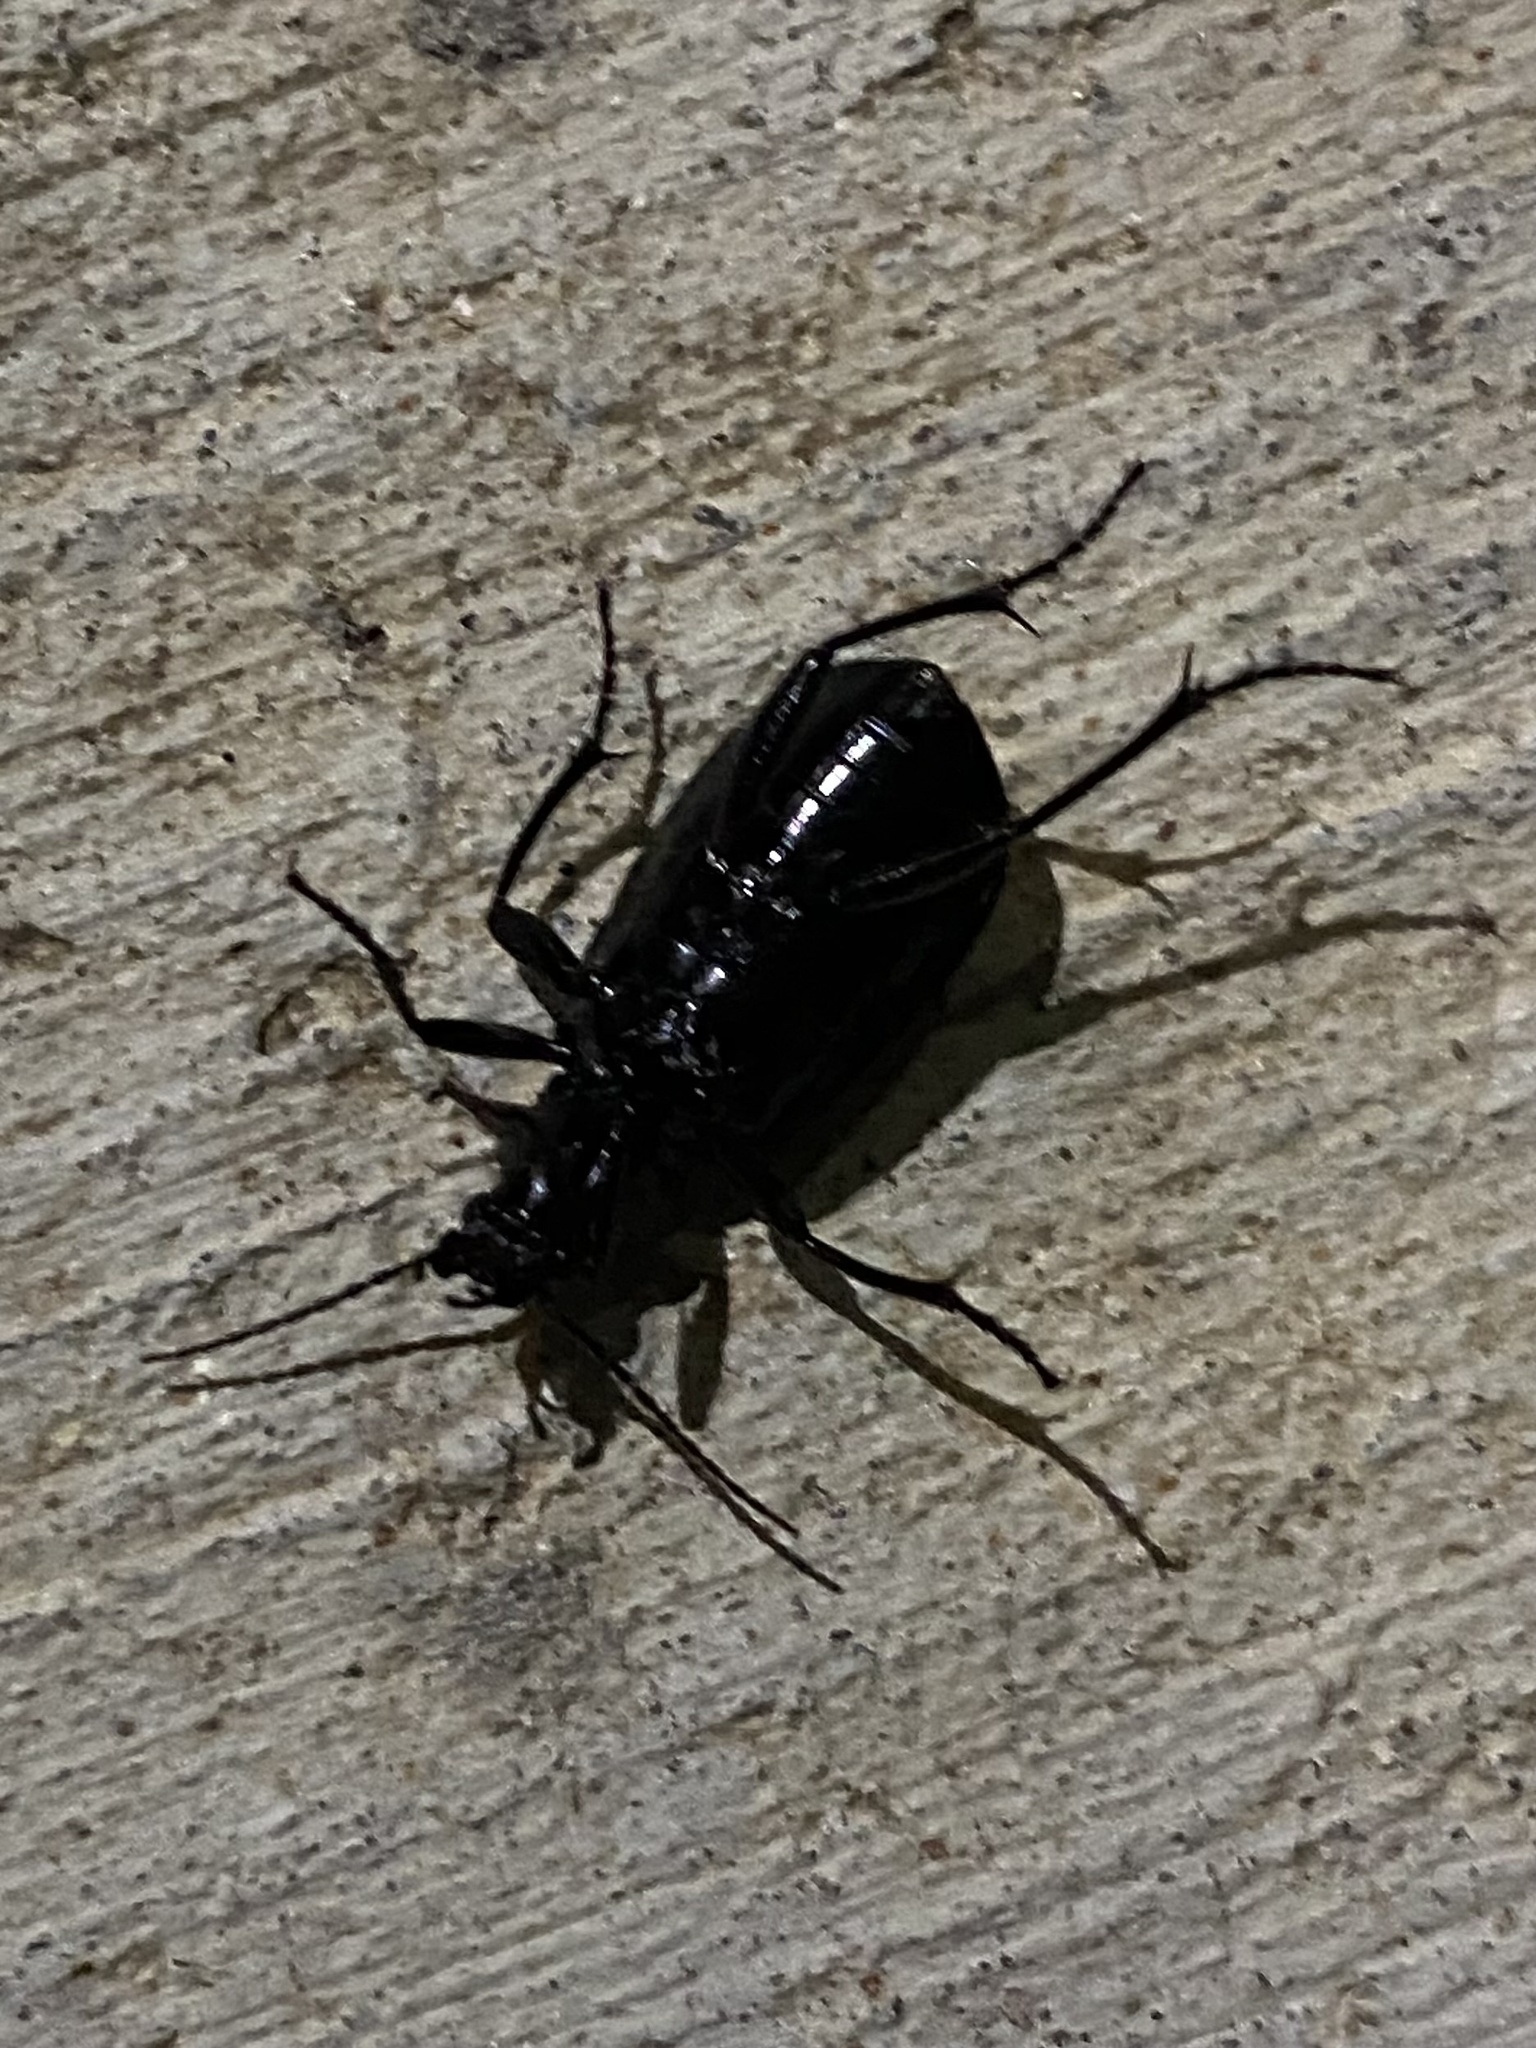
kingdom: Animalia
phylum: Arthropoda
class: Insecta
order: Coleoptera
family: Carabidae
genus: Calosoma
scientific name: Calosoma marginale
